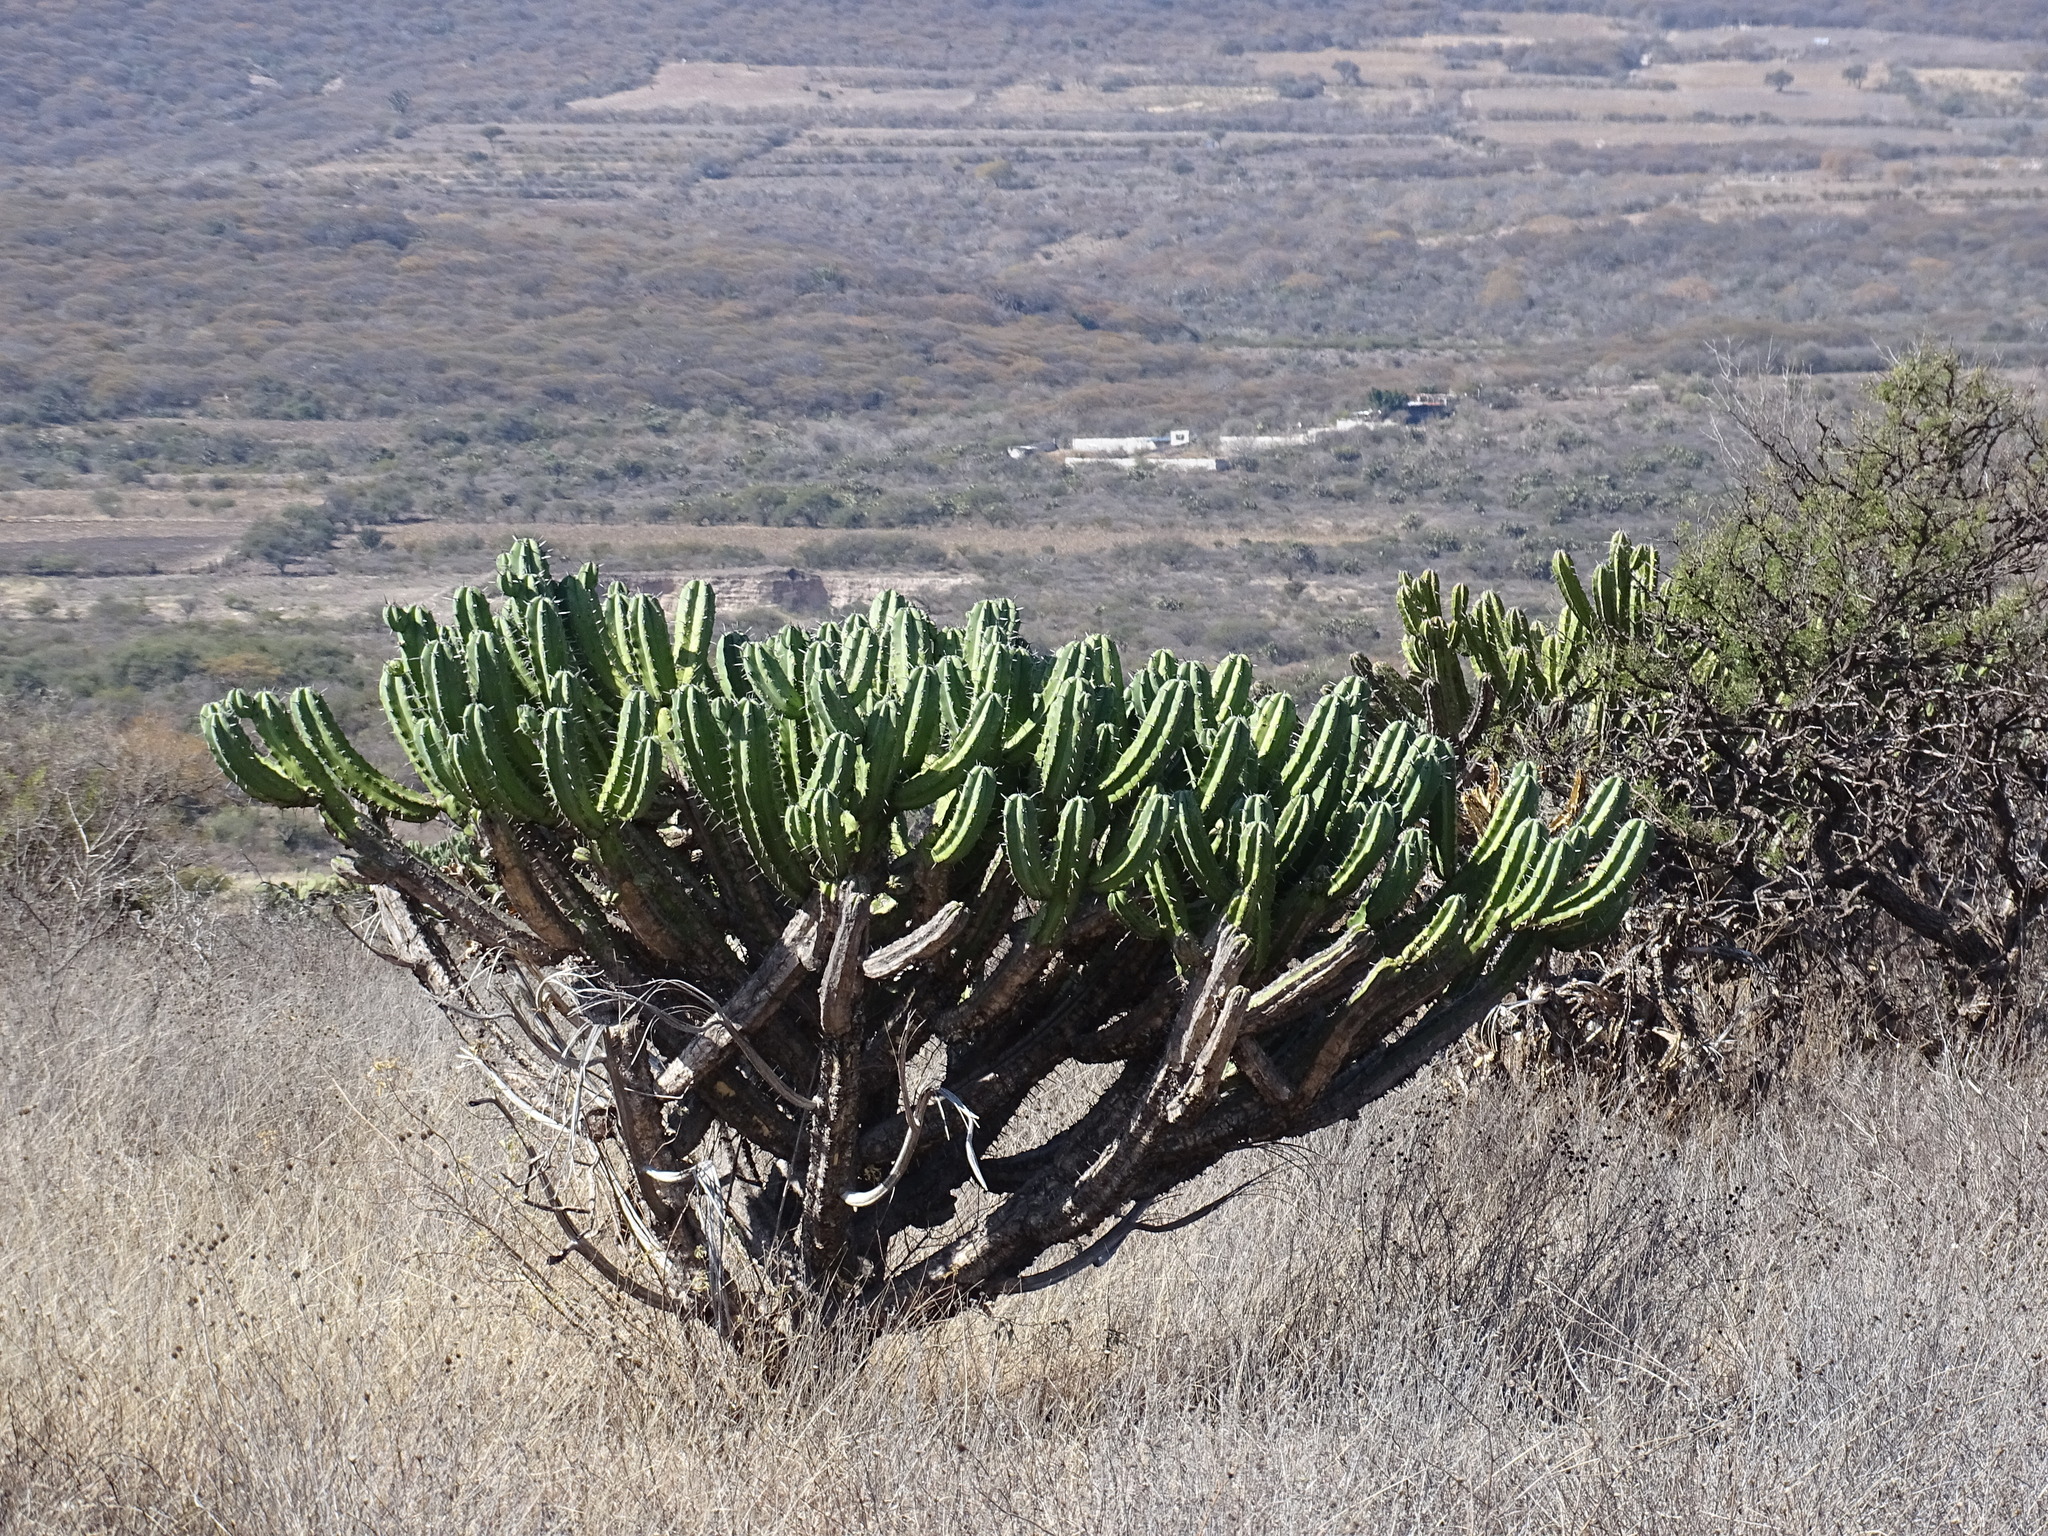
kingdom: Plantae
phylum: Tracheophyta
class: Magnoliopsida
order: Caryophyllales
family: Cactaceae
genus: Myrtillocactus
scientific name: Myrtillocactus geometrizans
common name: Bilberry cactus
